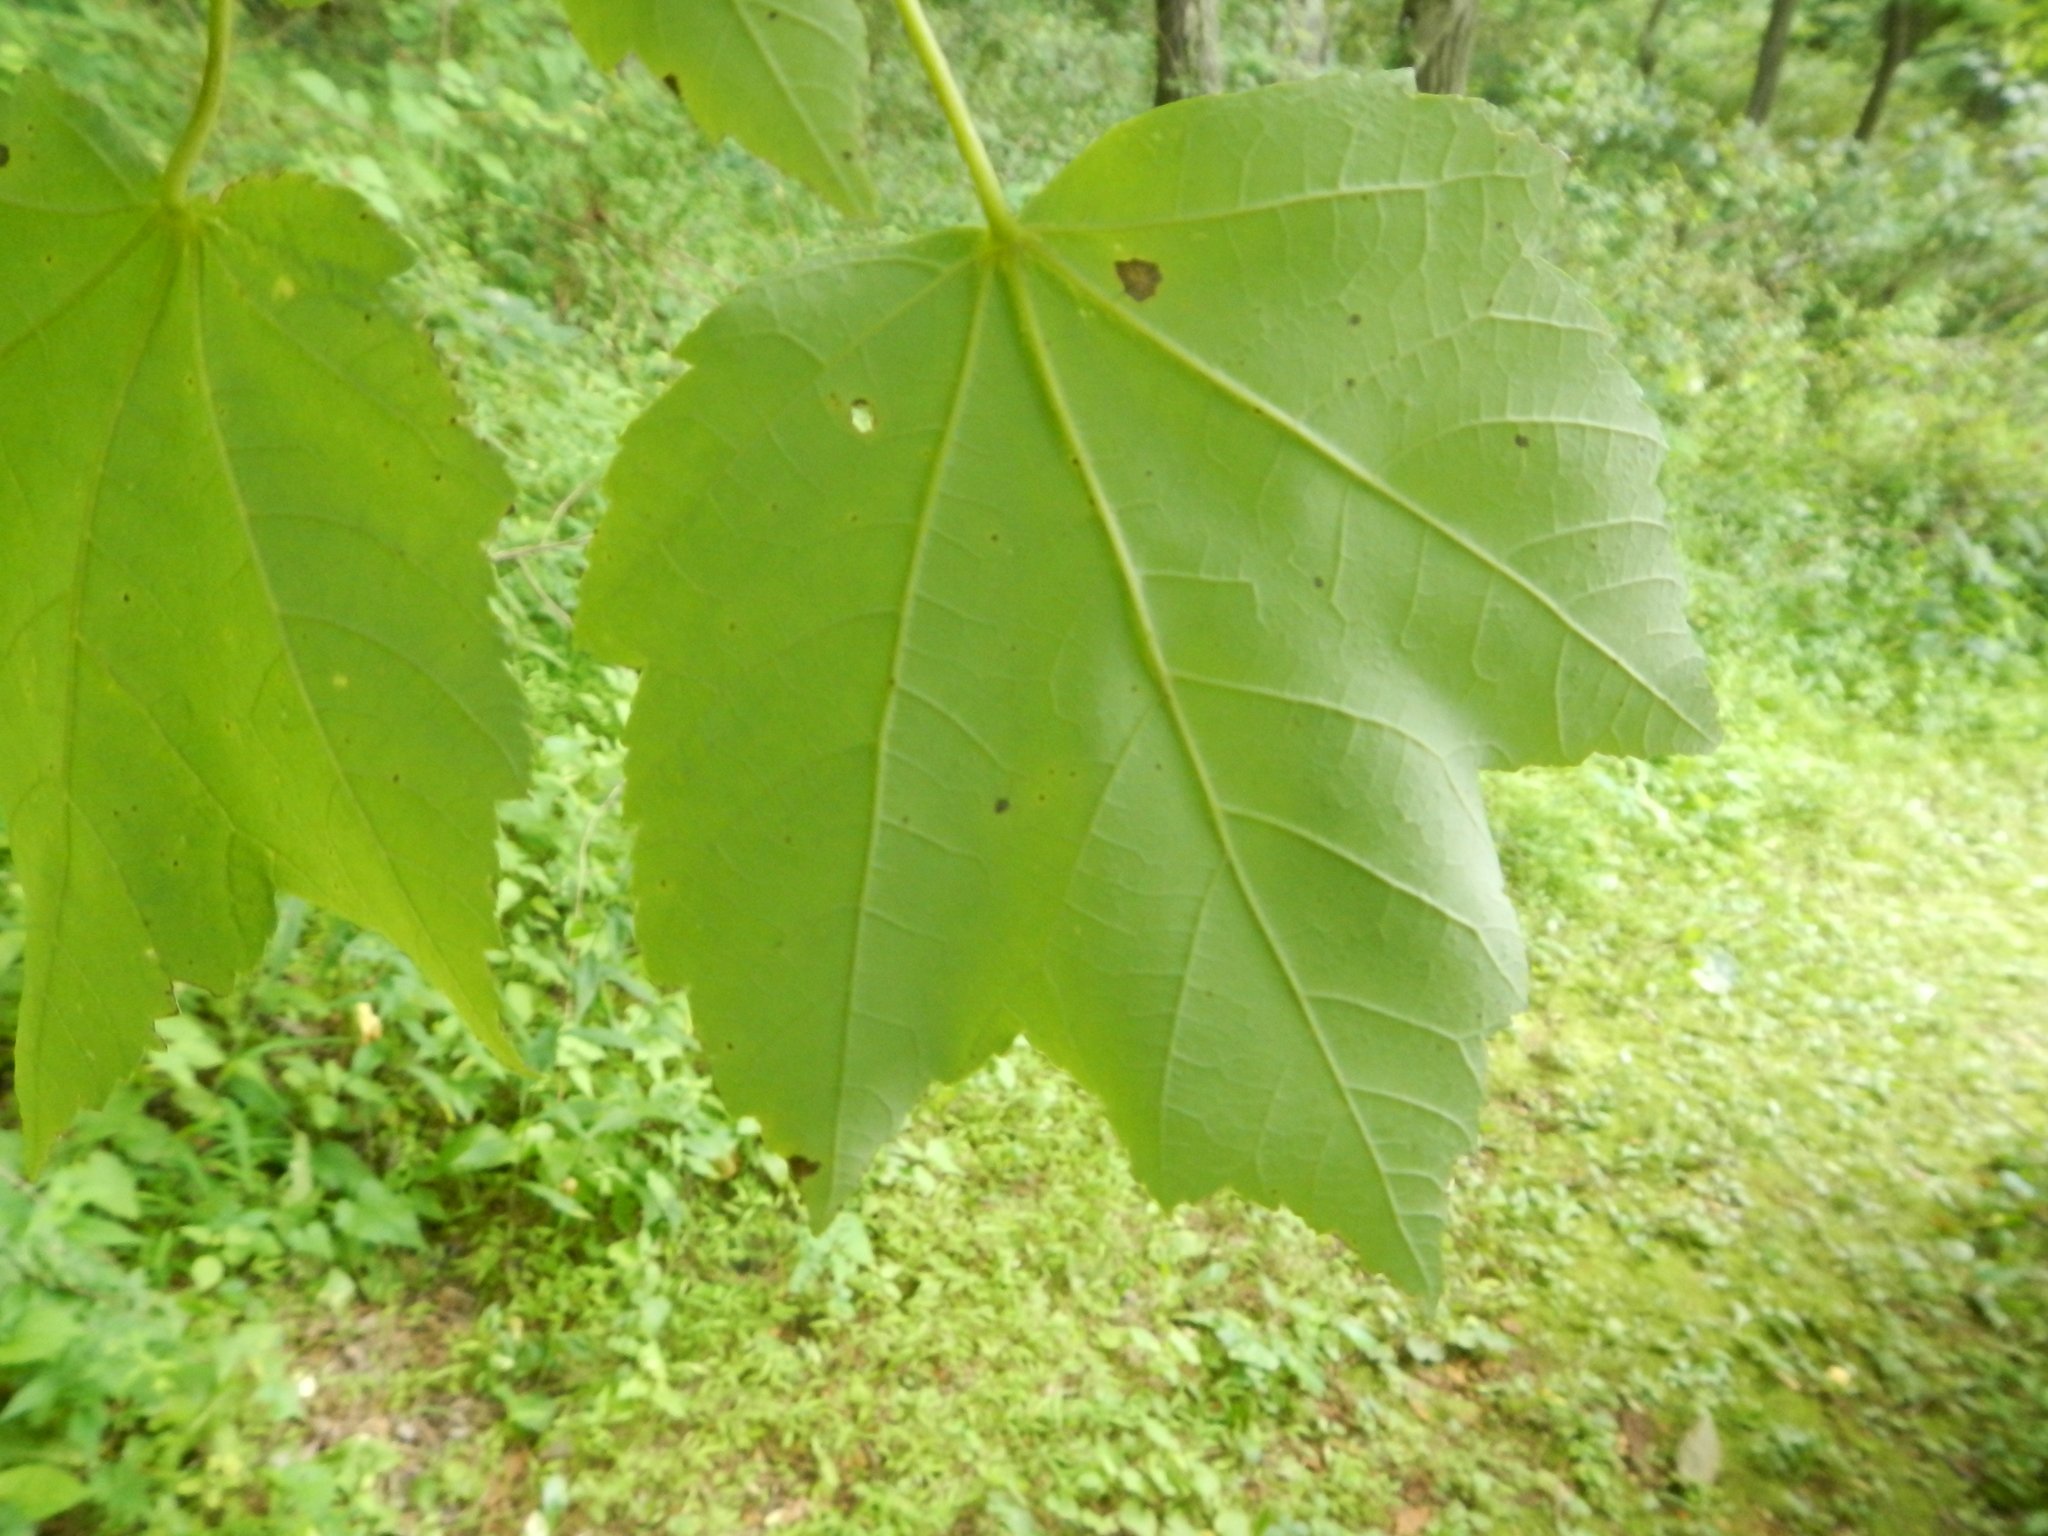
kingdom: Plantae
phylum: Tracheophyta
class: Magnoliopsida
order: Sapindales
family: Sapindaceae
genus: Acer
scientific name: Acer rubrum
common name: Red maple
